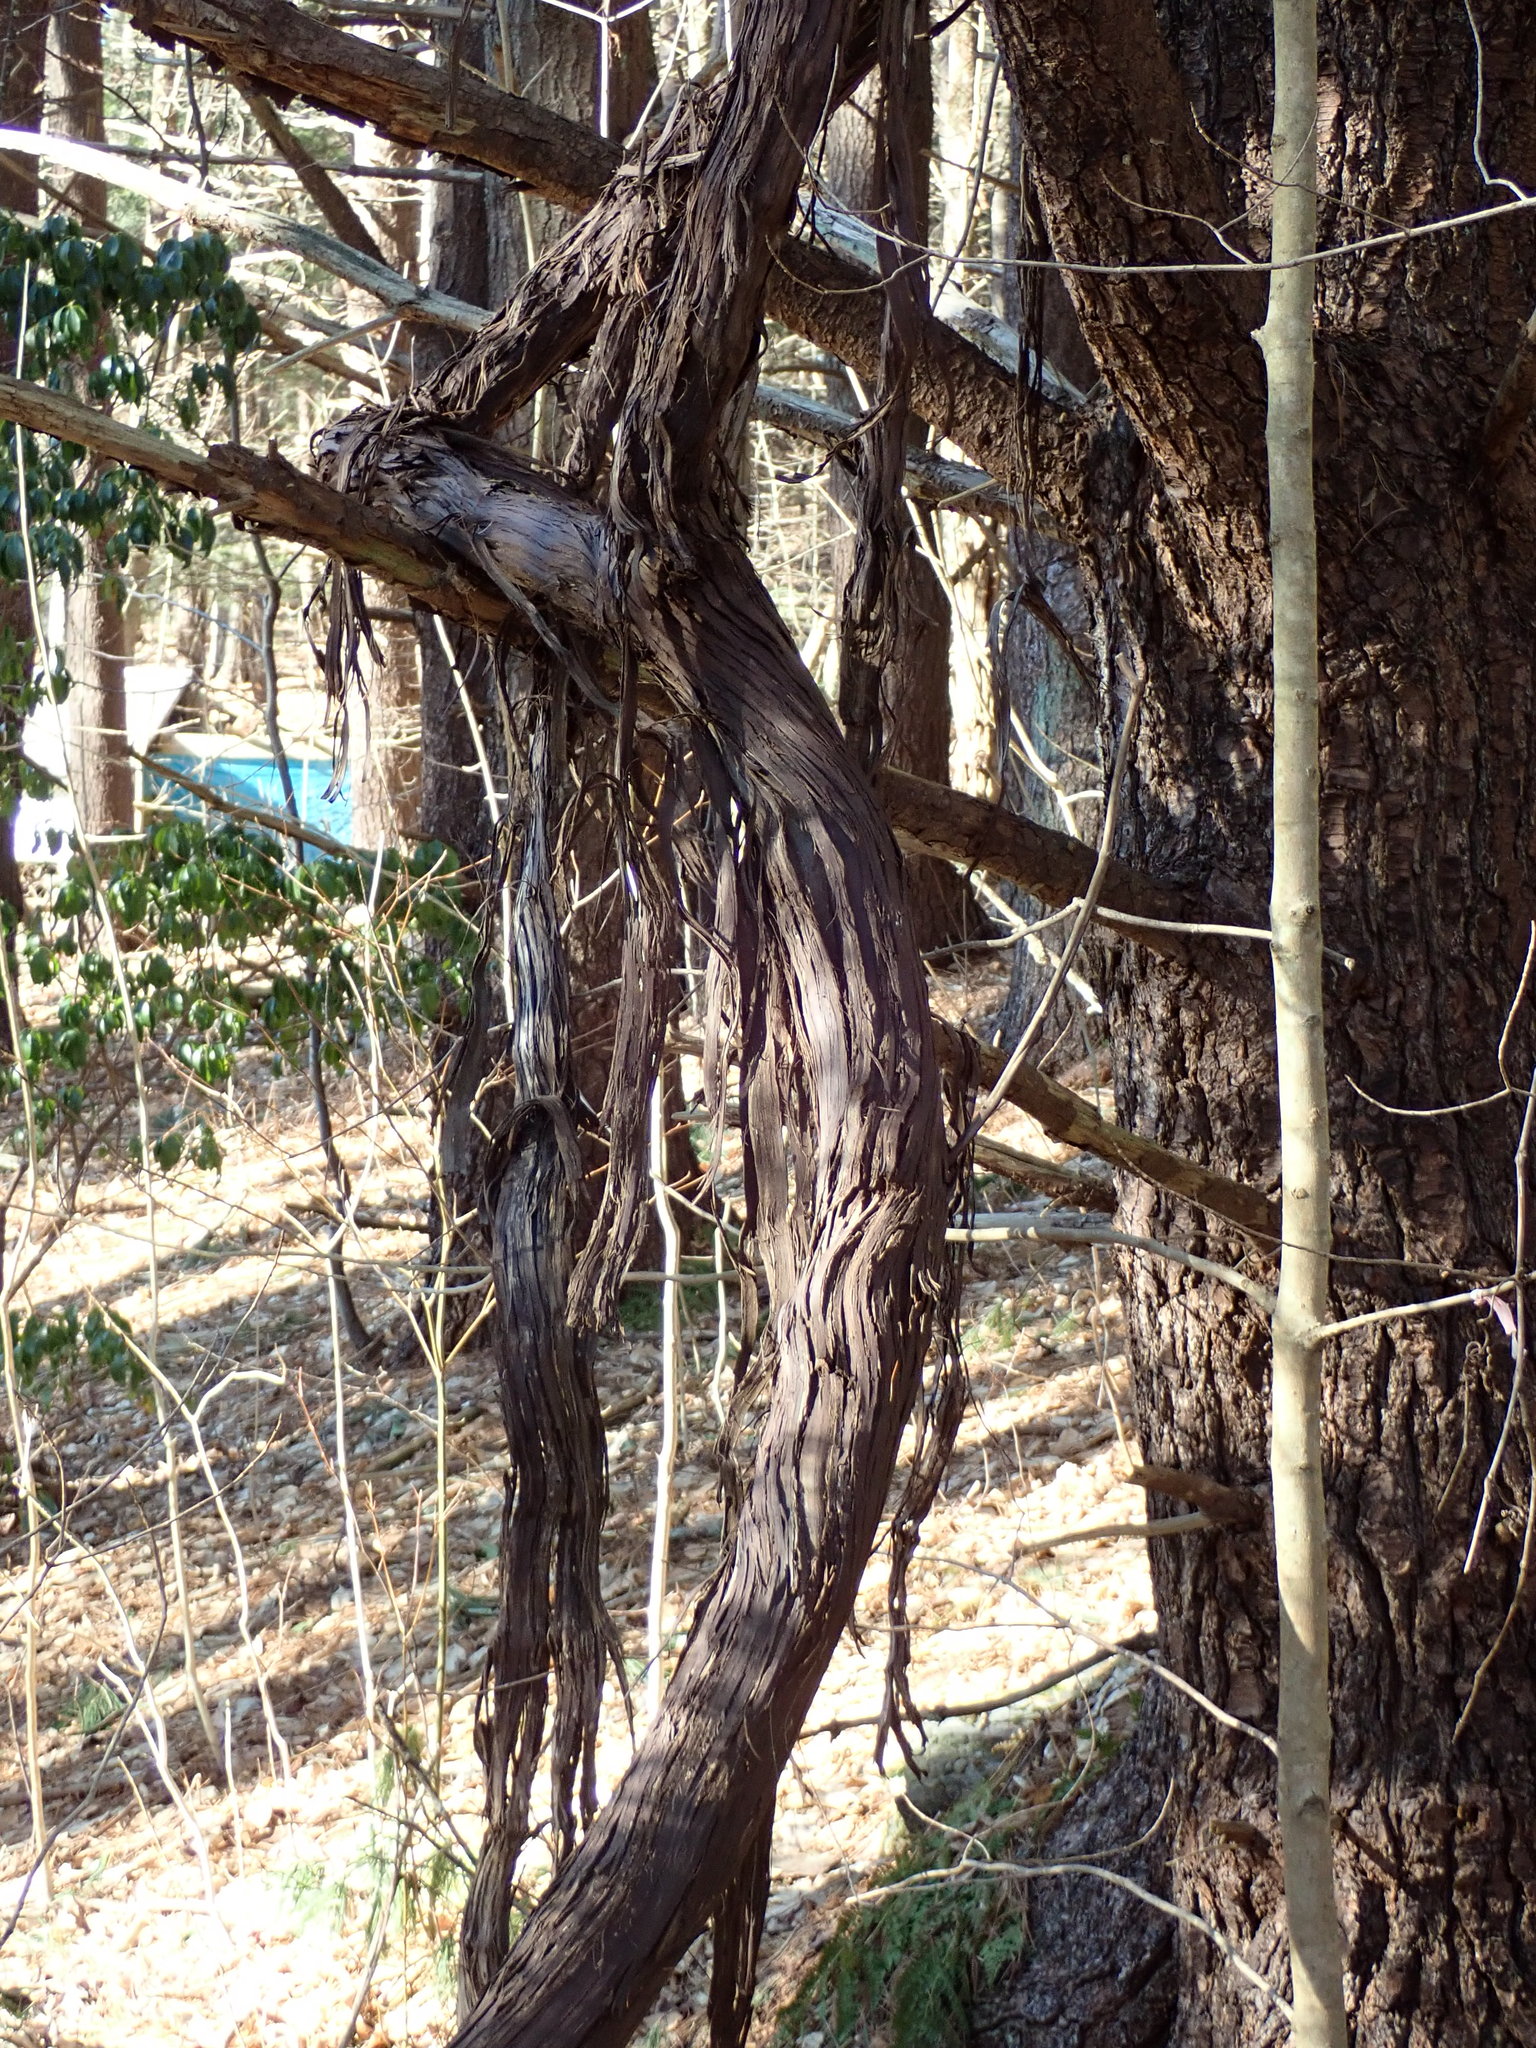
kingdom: Plantae
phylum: Tracheophyta
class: Magnoliopsida
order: Vitales
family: Vitaceae
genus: Vitis
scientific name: Vitis
